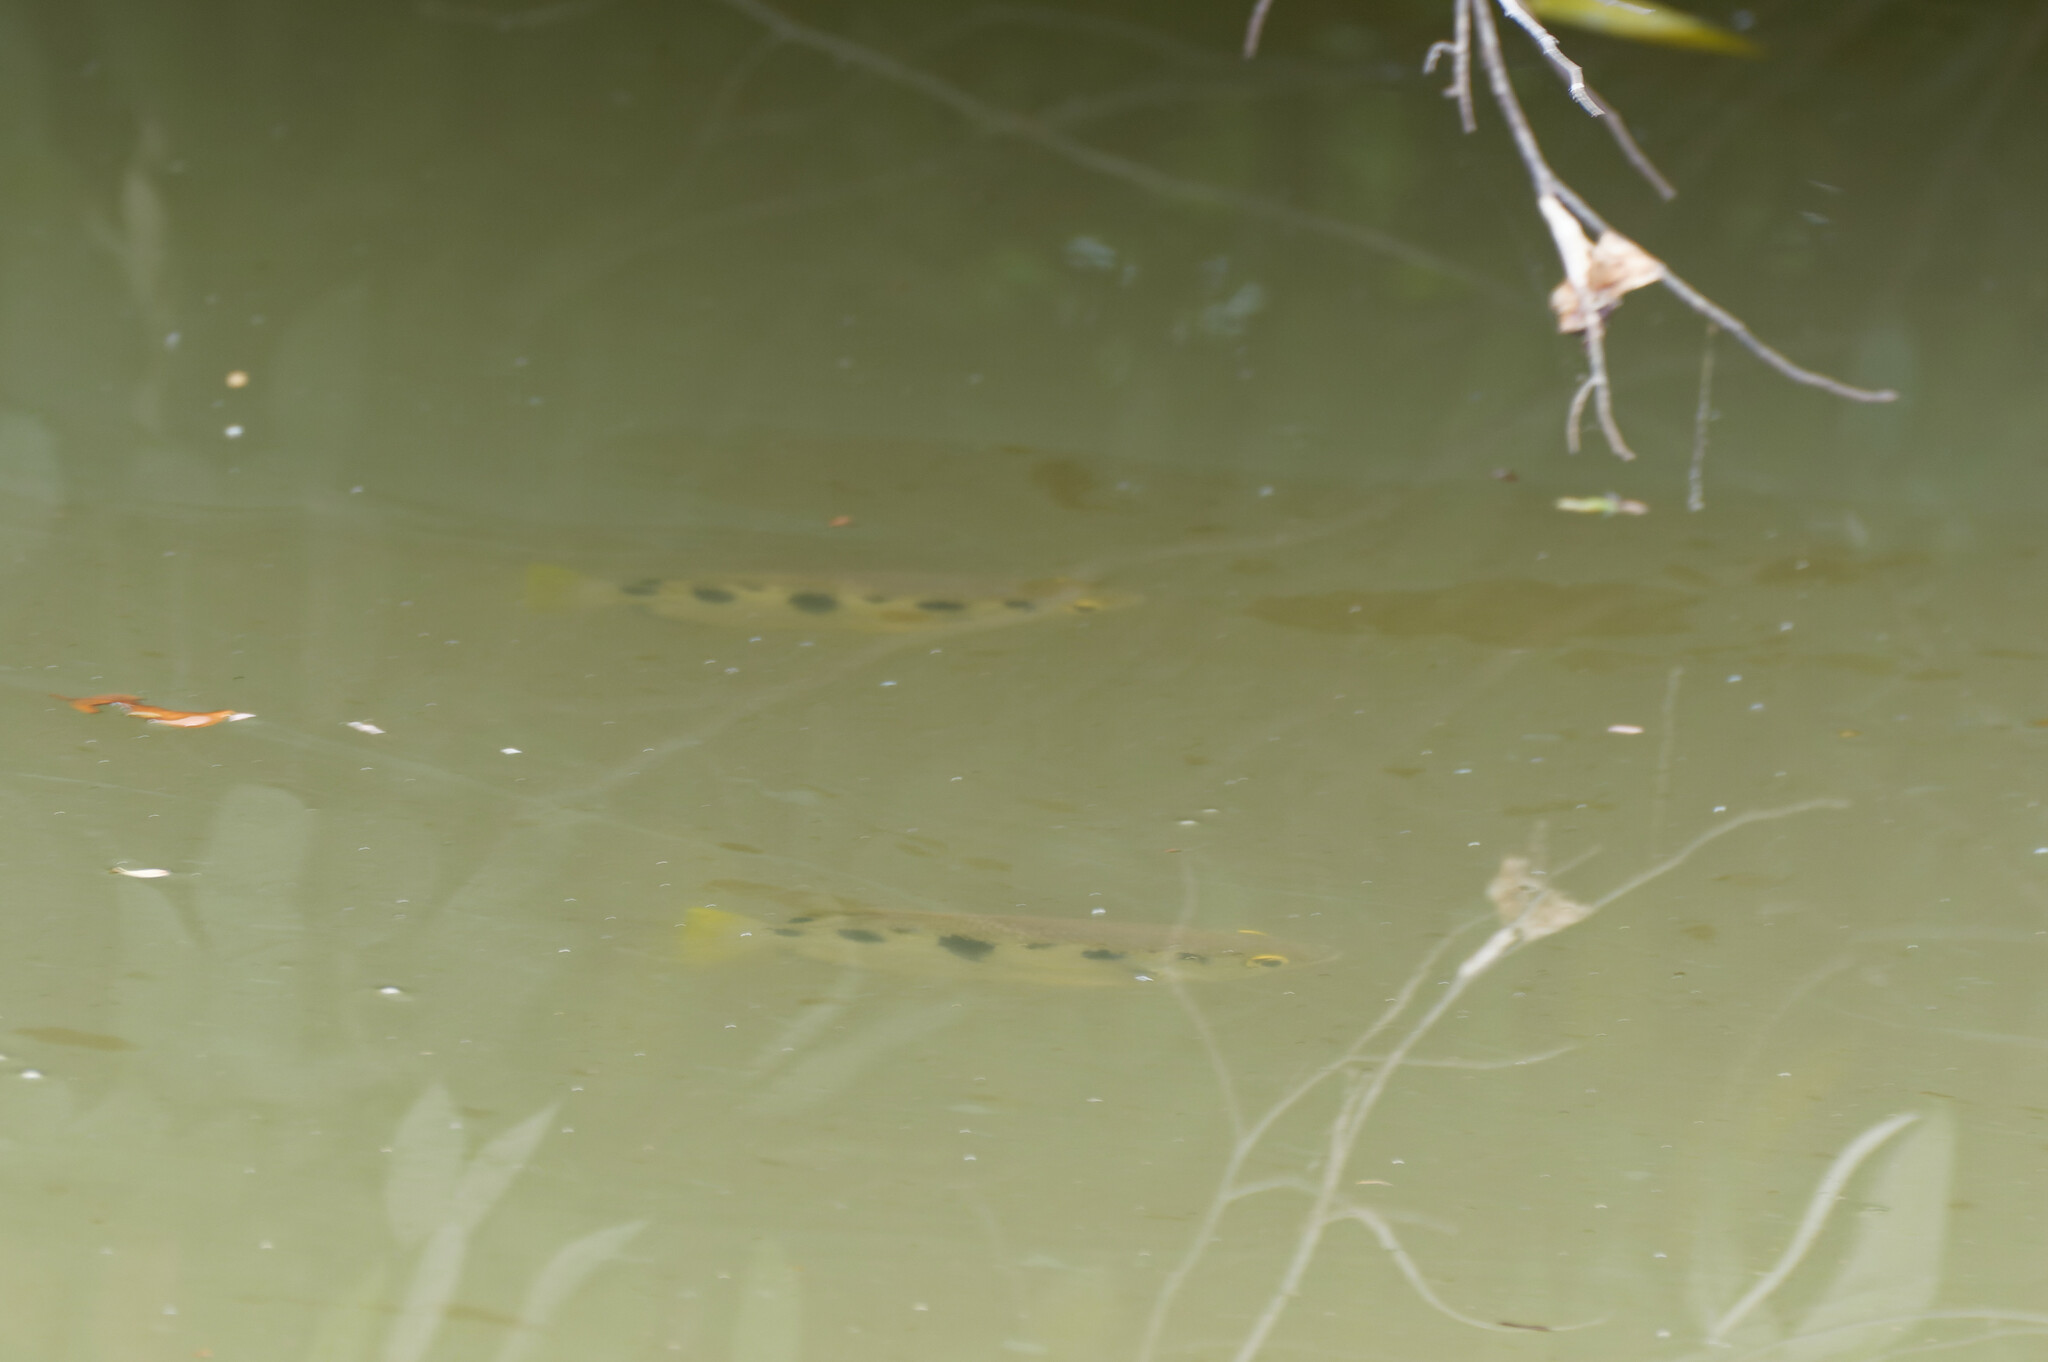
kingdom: Animalia
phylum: Chordata
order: Perciformes
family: Toxotidae
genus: Toxotes
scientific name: Toxotes chatareus
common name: Spotted archerfish
